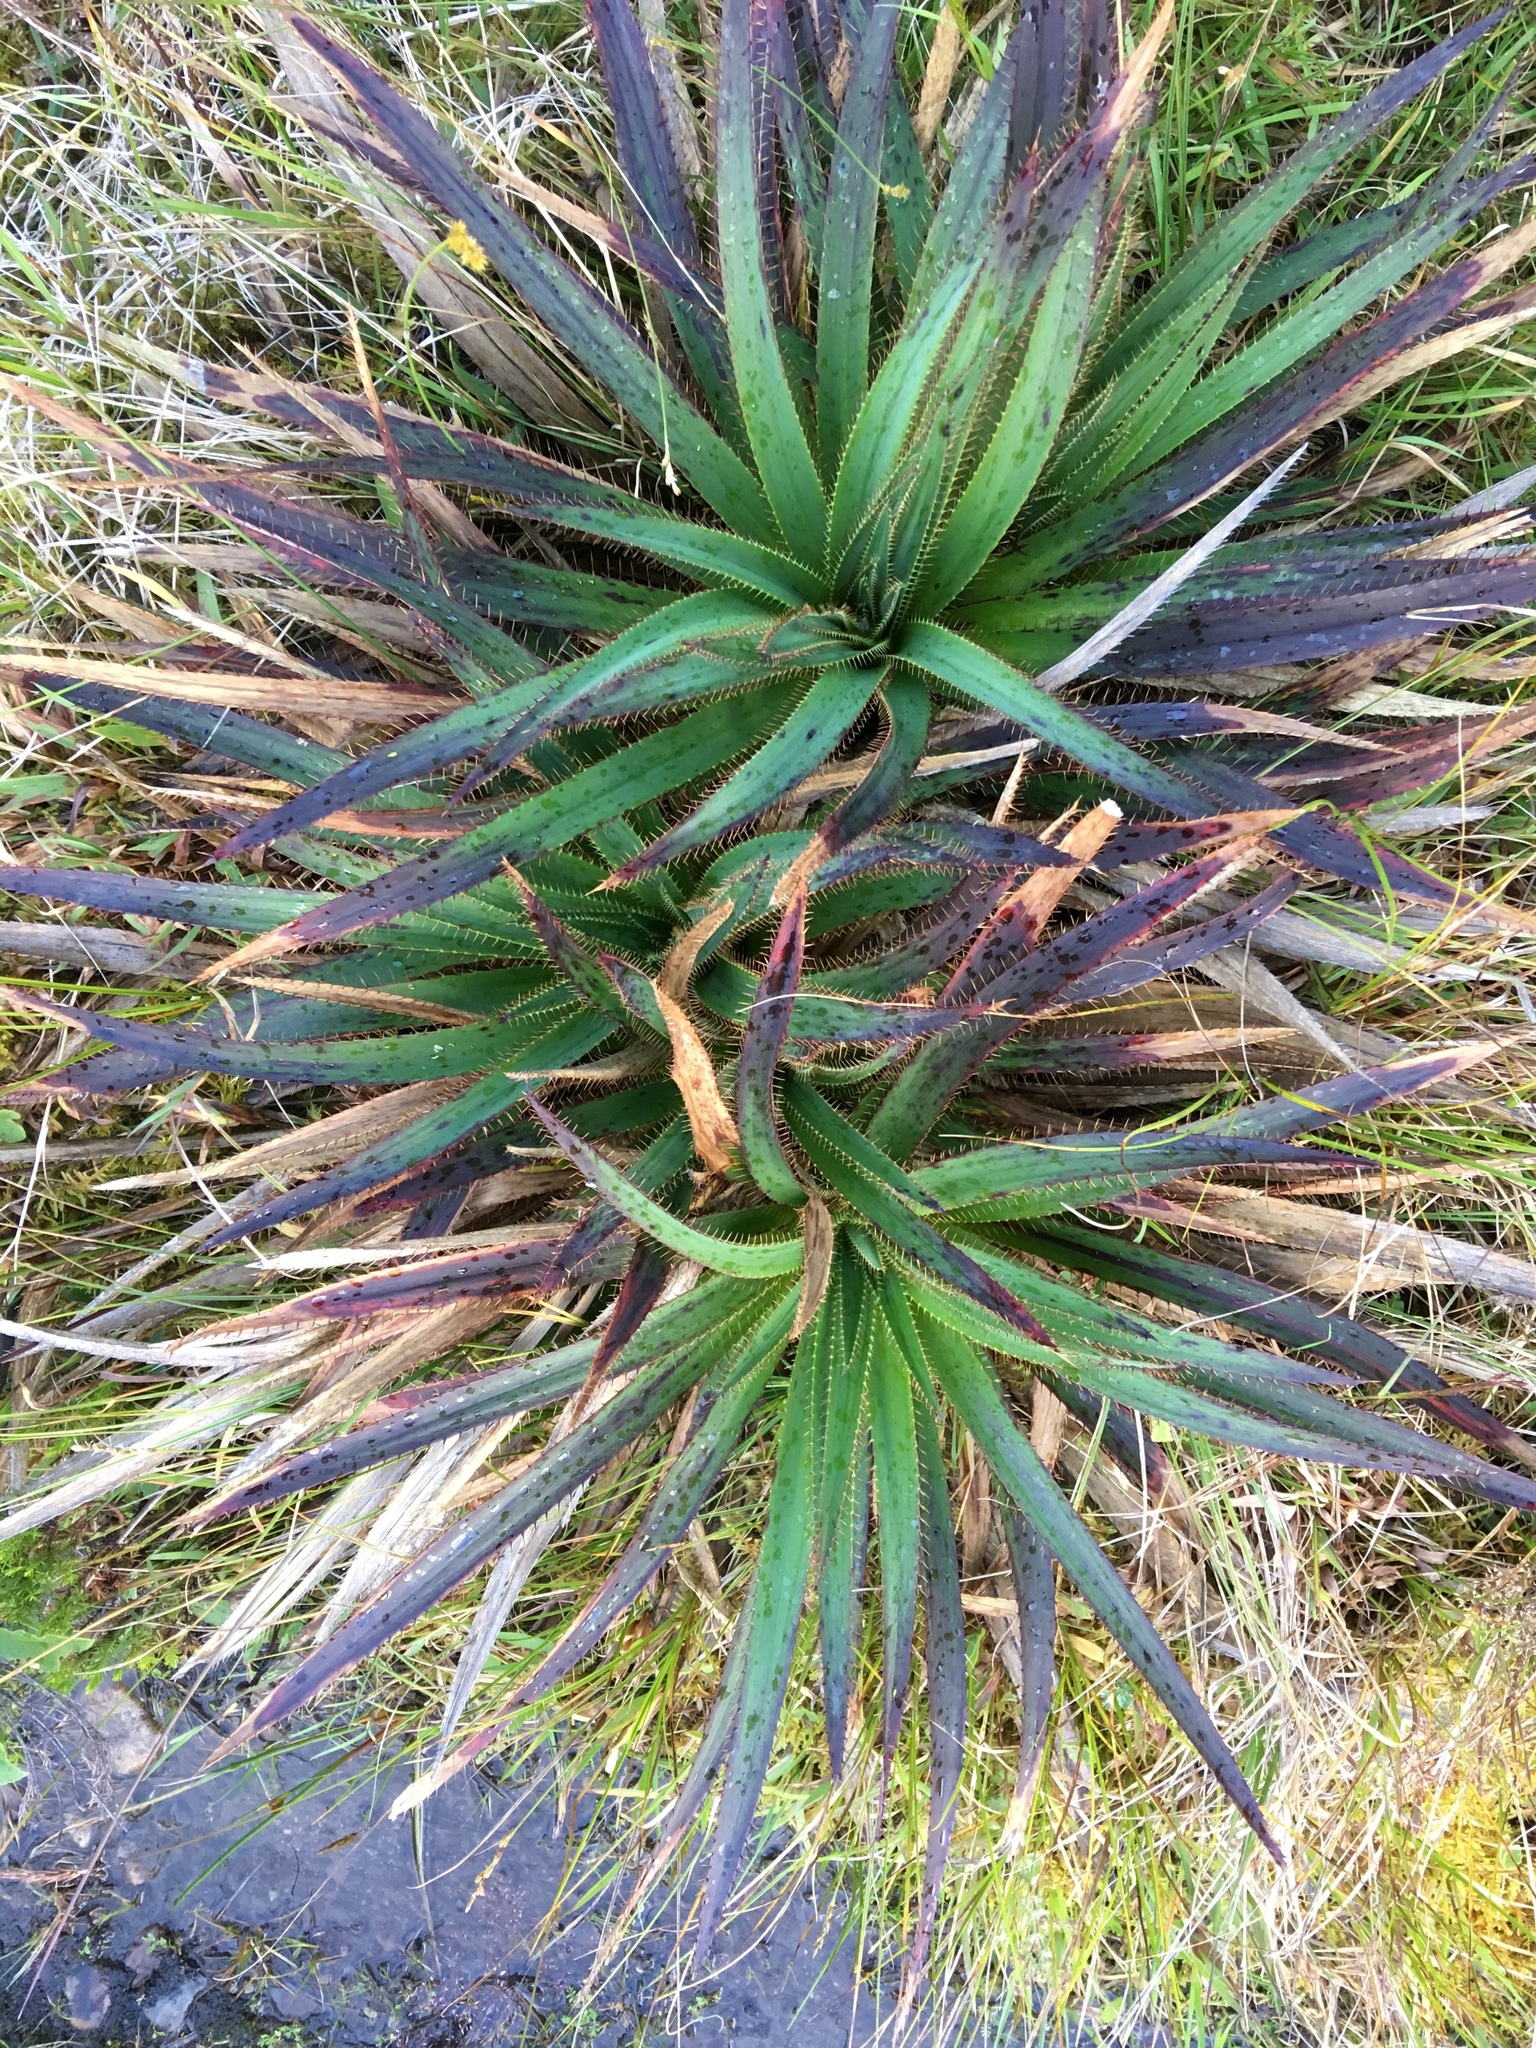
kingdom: Plantae
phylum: Tracheophyta
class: Magnoliopsida
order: Apiales
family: Apiaceae
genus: Eryngium
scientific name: Eryngium humboldtii
